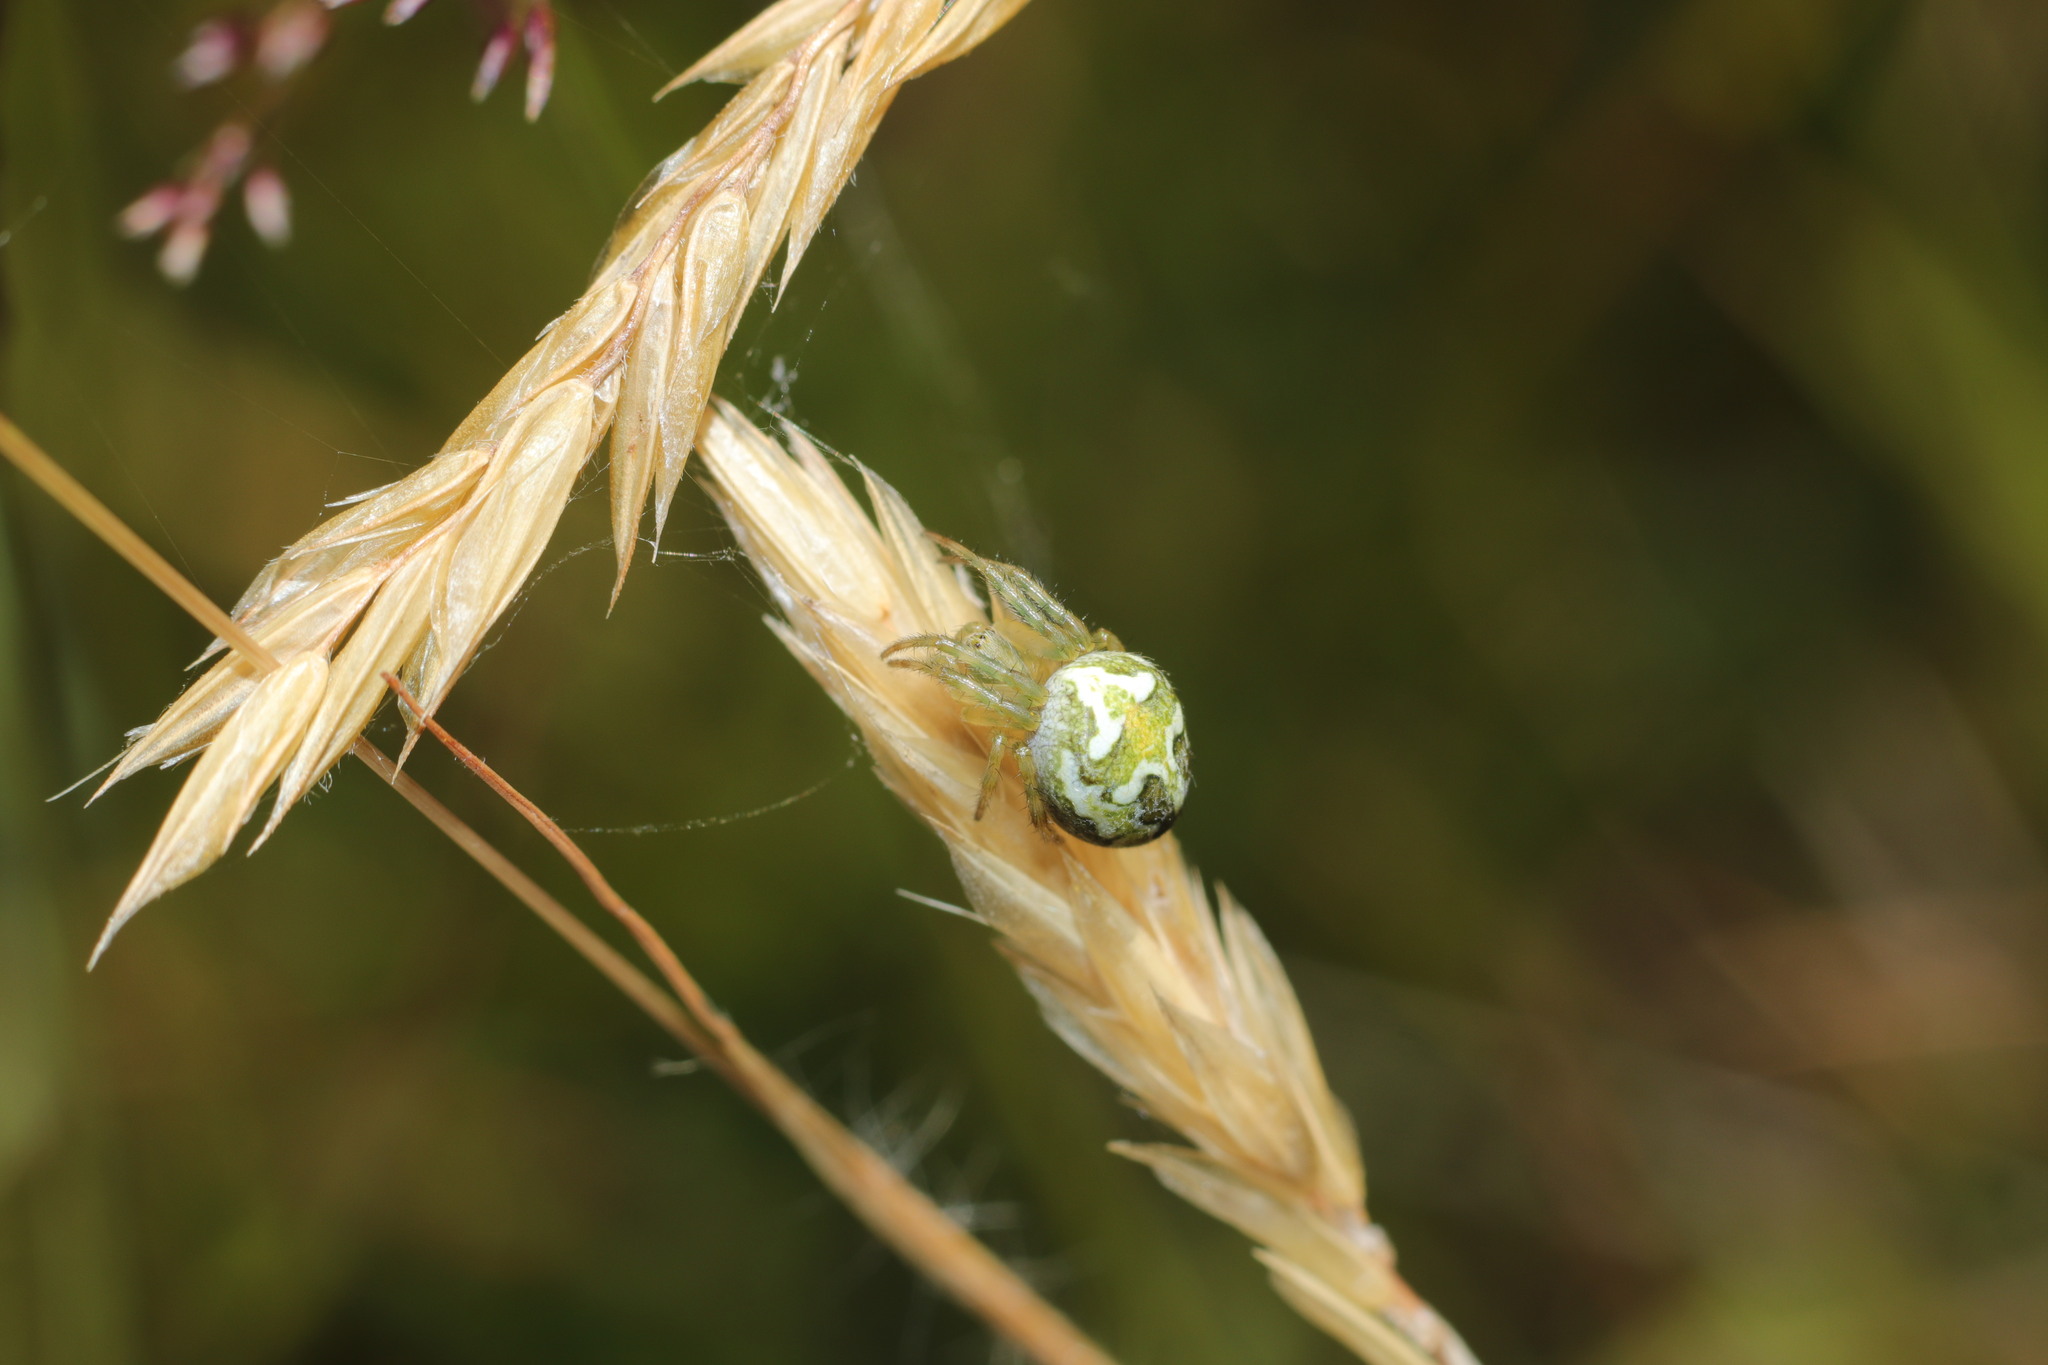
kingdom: Animalia
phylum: Arthropoda
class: Arachnida
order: Araneae
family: Araneidae
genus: Colaranea
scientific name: Colaranea verutum
